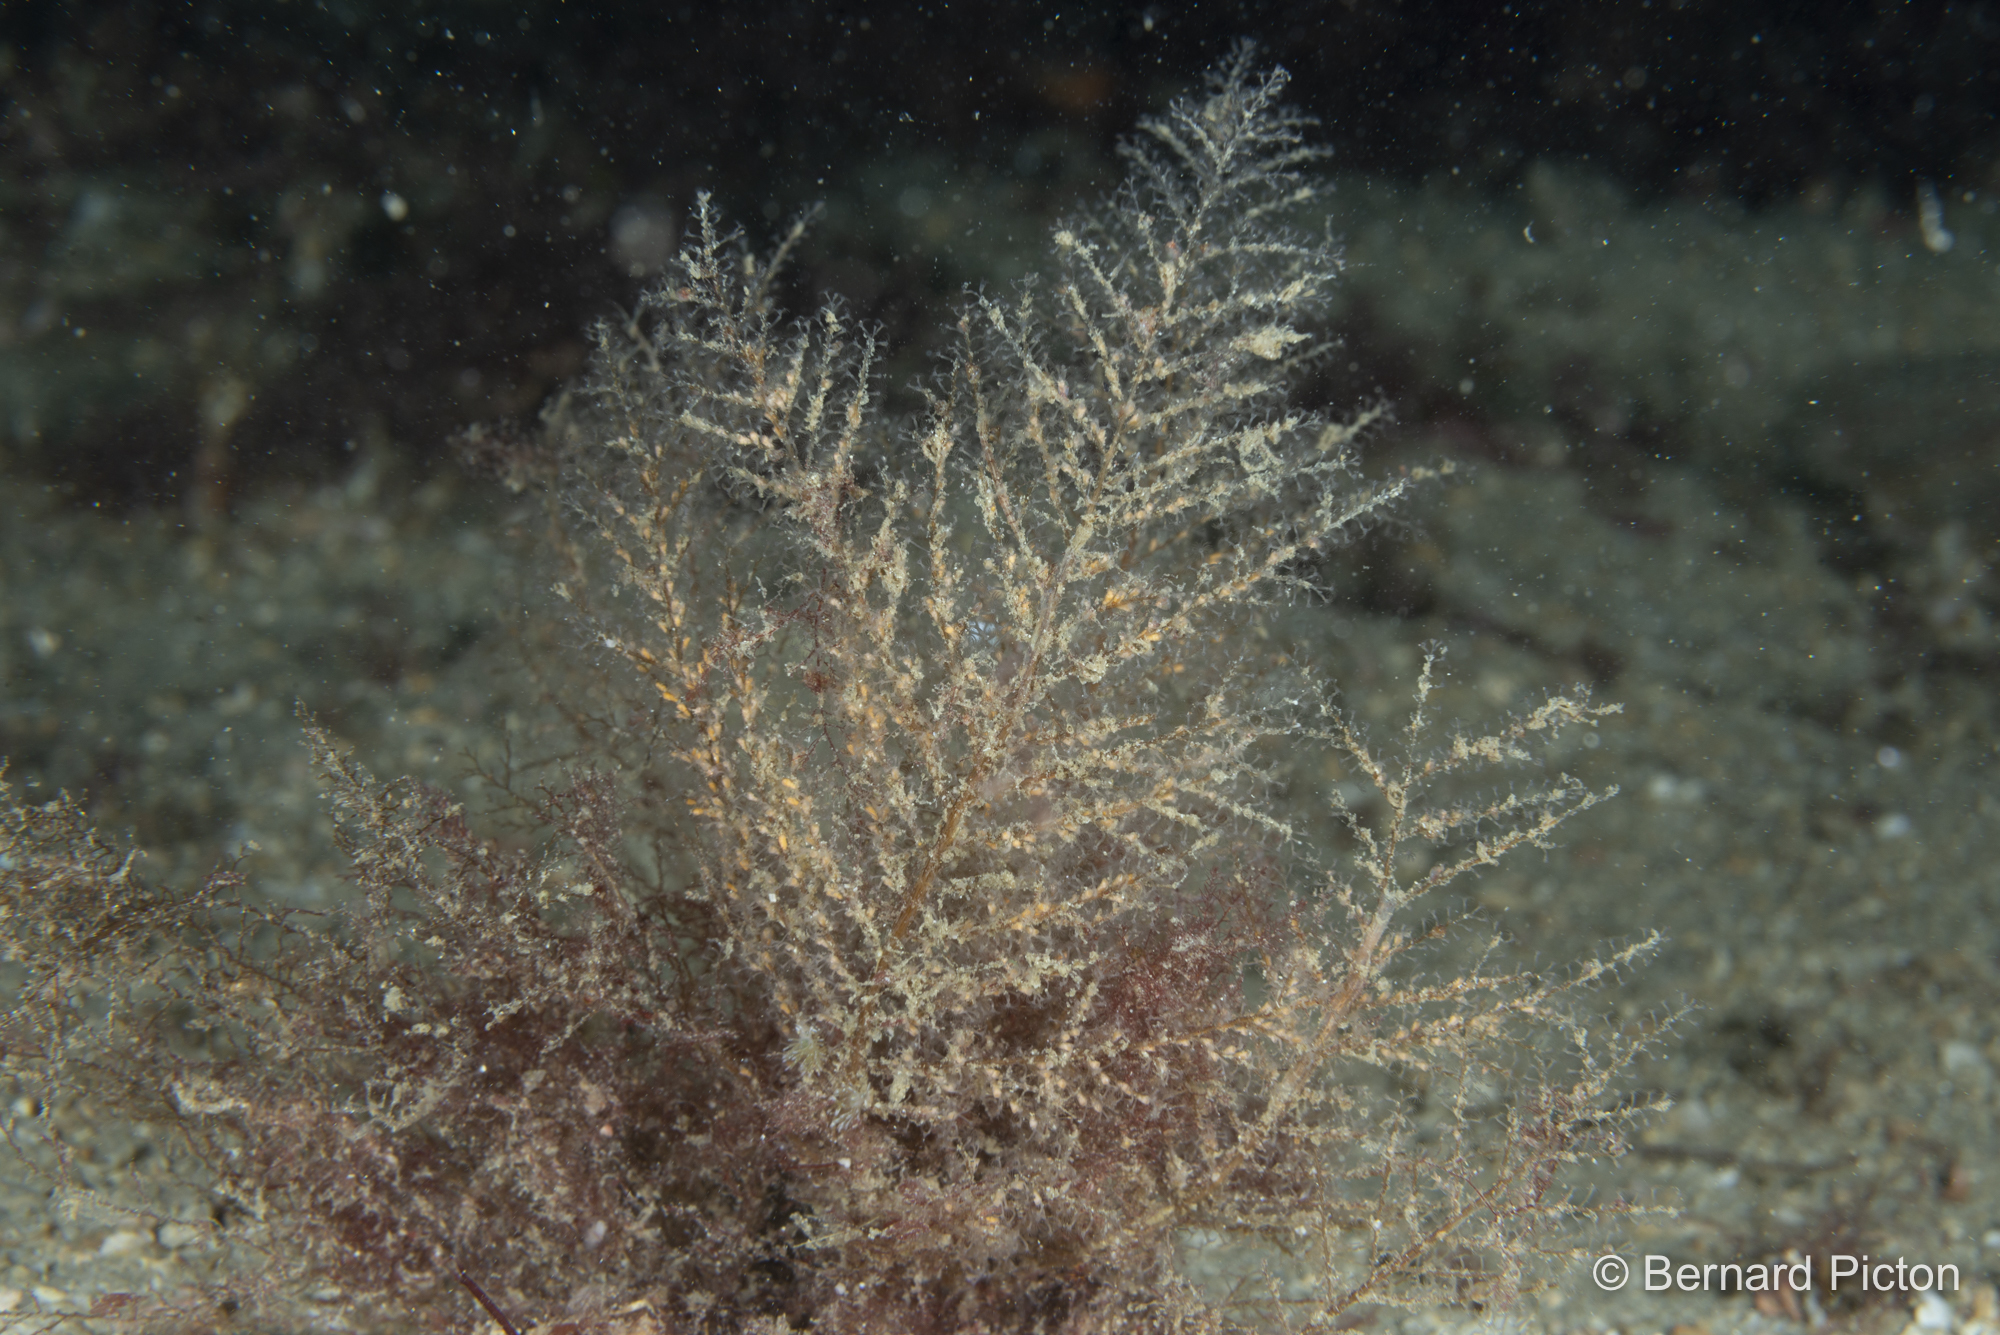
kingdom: Animalia
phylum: Cnidaria
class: Hydrozoa
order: Leptothecata
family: Haleciidae
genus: Halecium
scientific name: Halecium halecinum
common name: Herringbone hydroid
